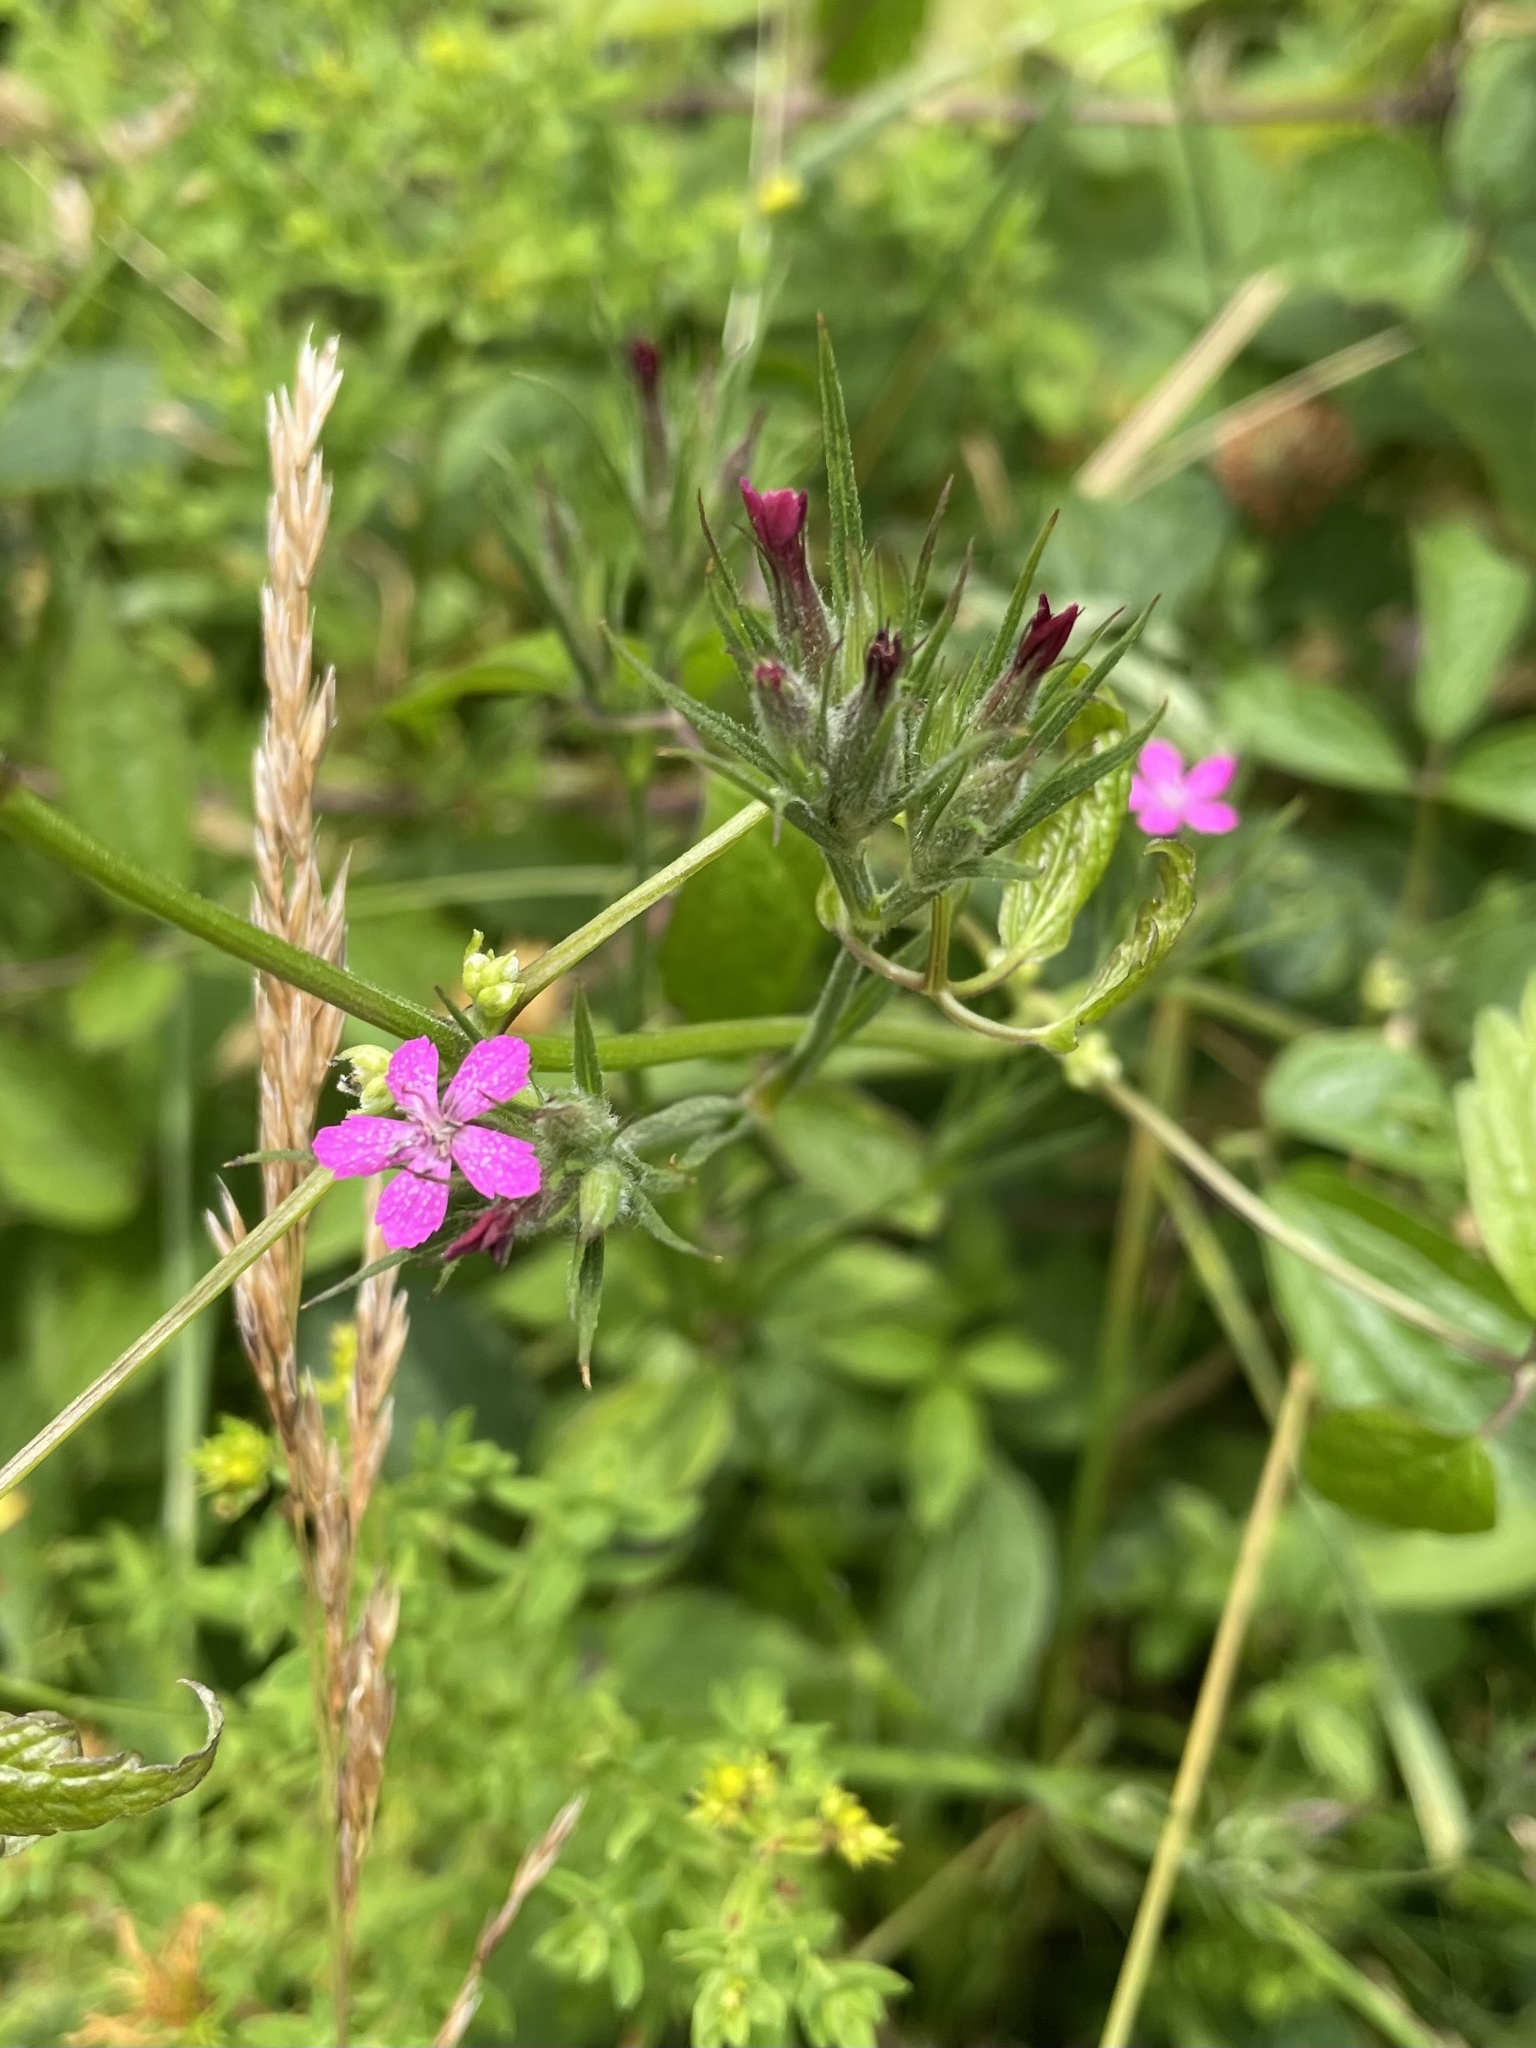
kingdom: Plantae
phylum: Tracheophyta
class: Magnoliopsida
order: Caryophyllales
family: Caryophyllaceae
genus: Dianthus
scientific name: Dianthus armeria
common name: Deptford pink
